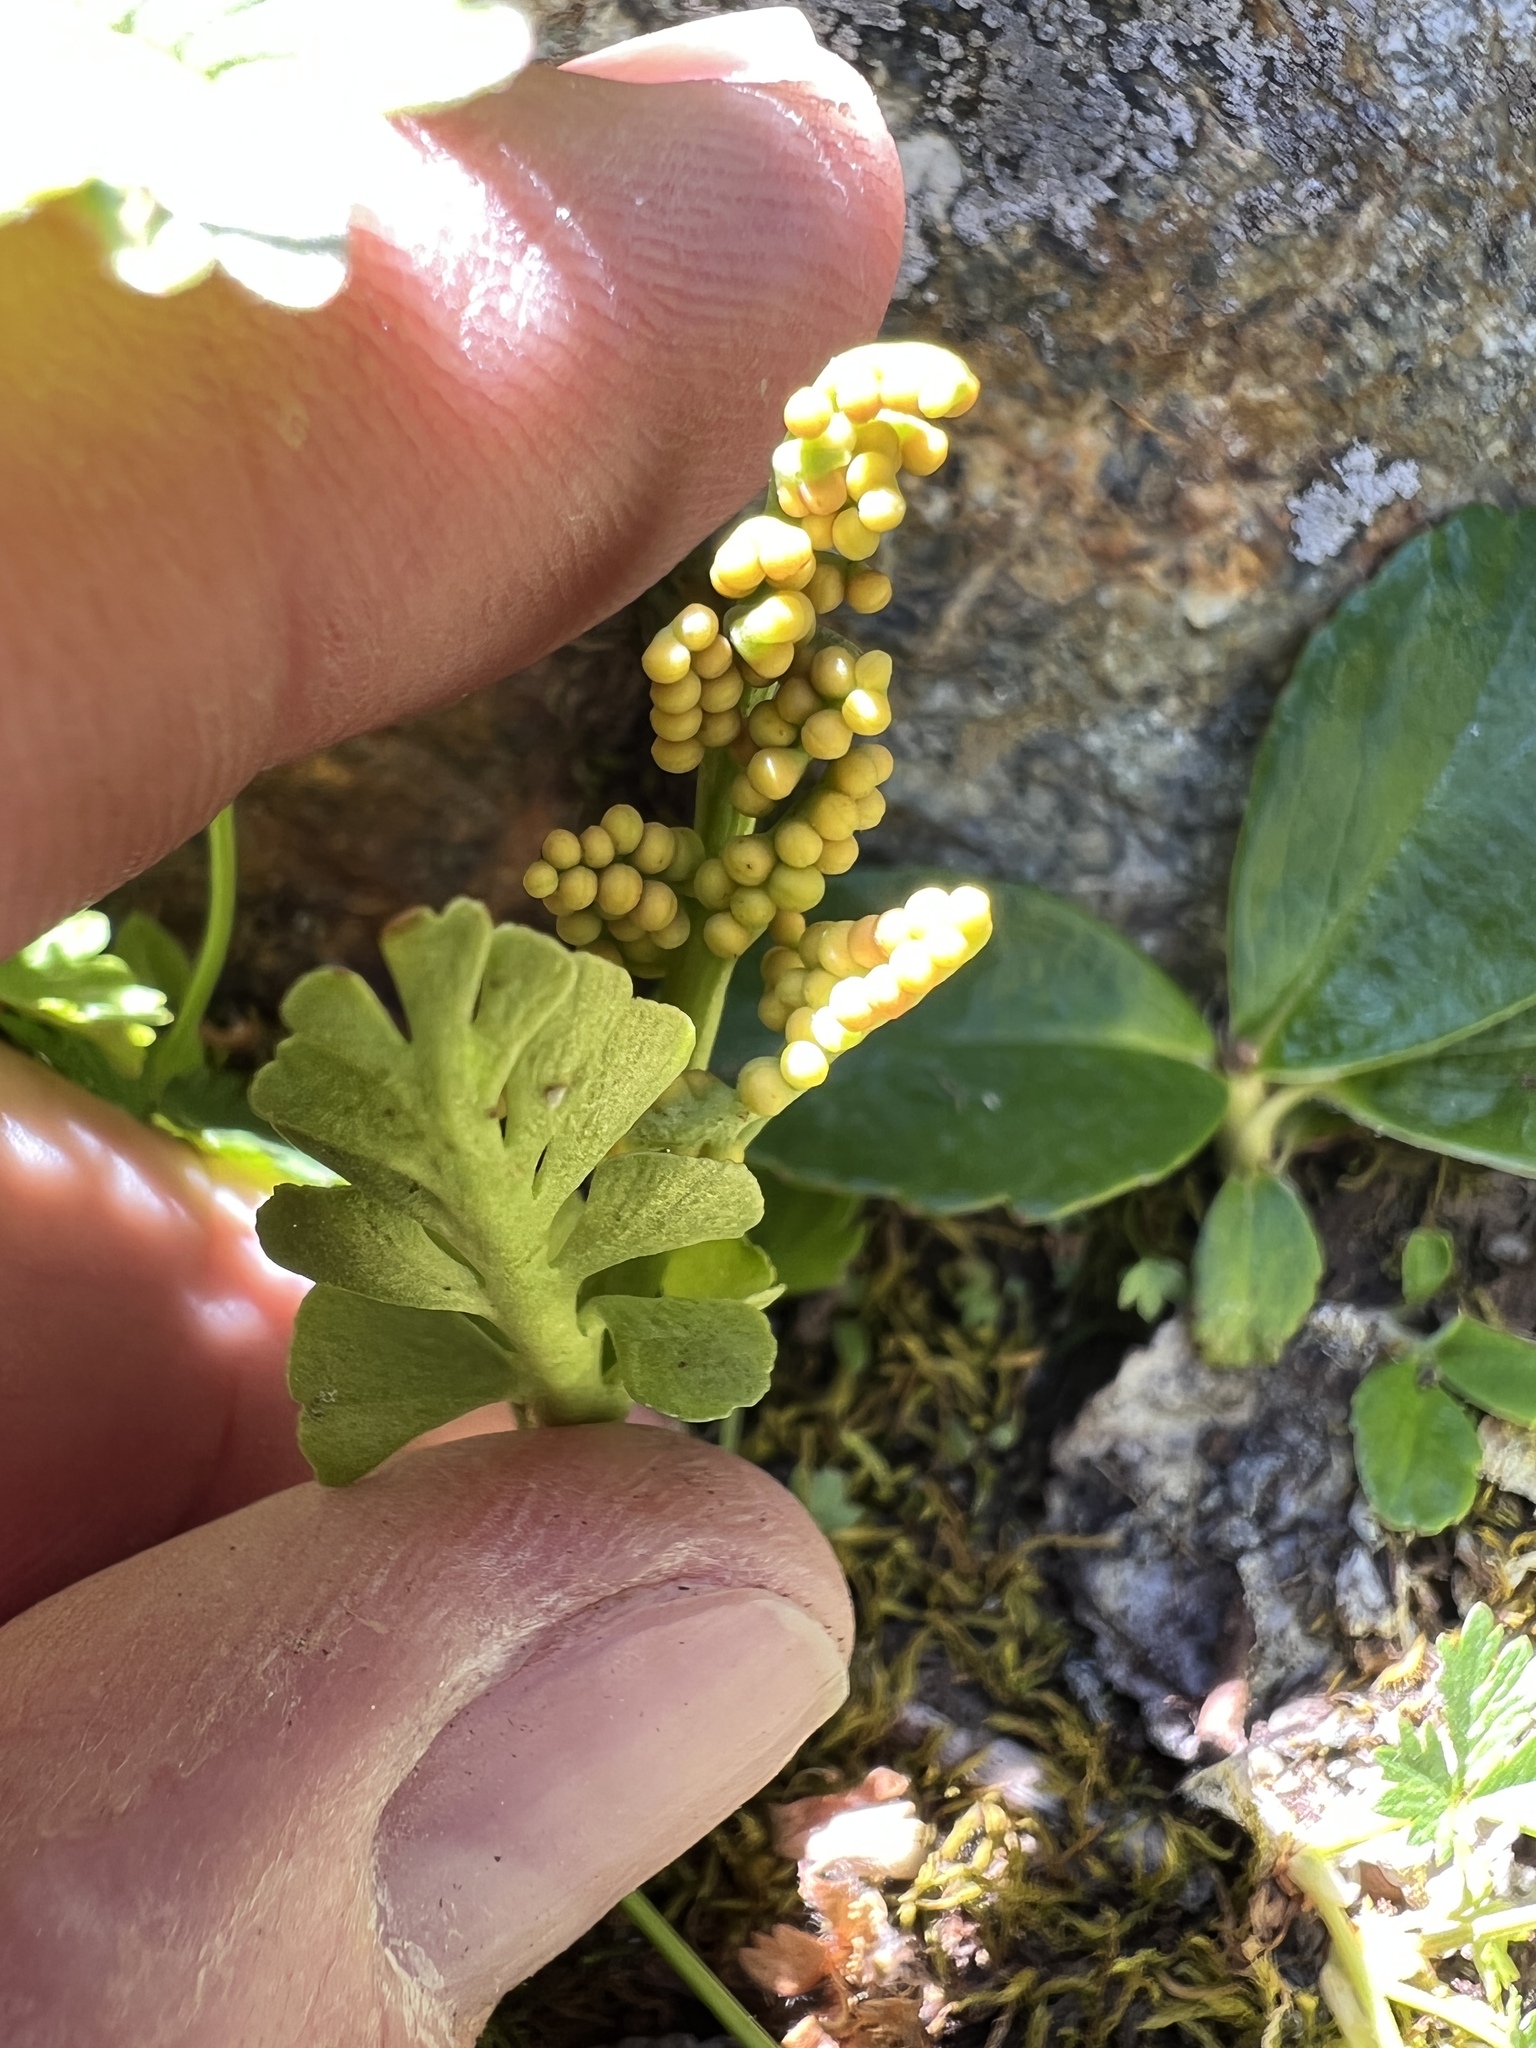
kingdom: Plantae
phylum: Tracheophyta
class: Polypodiopsida
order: Ophioglossales
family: Ophioglossaceae
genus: Botrychium
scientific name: Botrychium minganense
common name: Mingan grapefern
